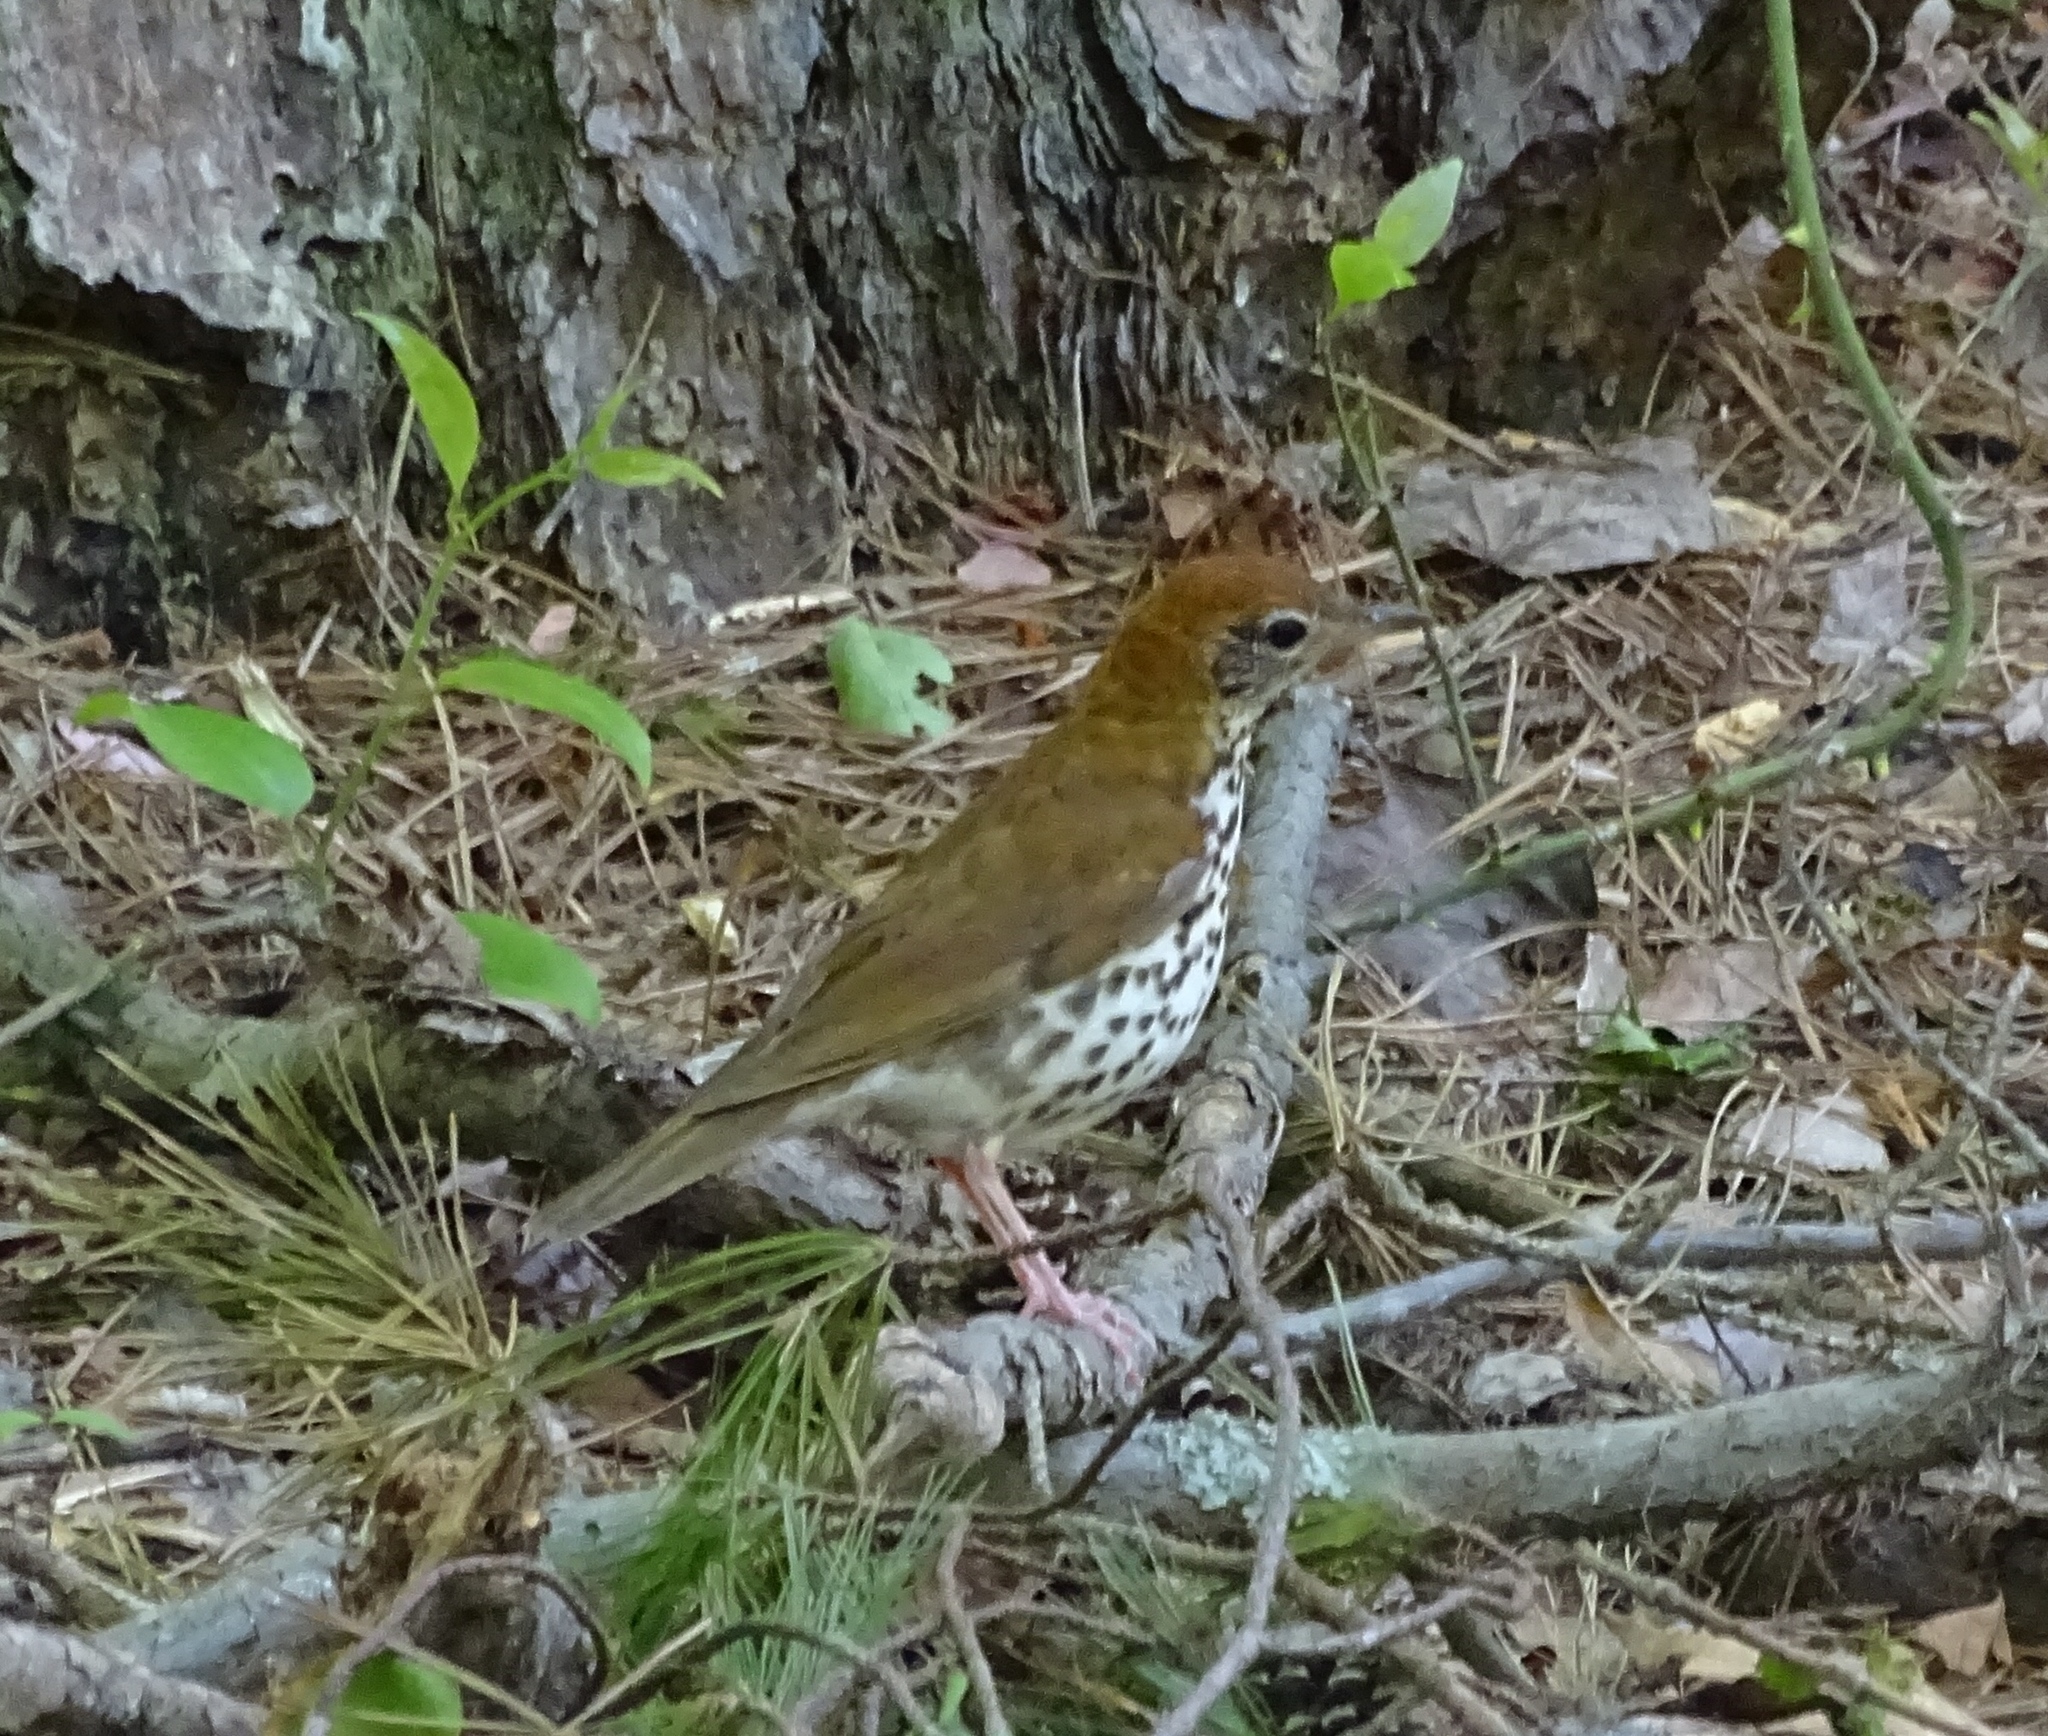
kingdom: Animalia
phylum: Chordata
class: Aves
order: Passeriformes
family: Turdidae
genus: Hylocichla
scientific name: Hylocichla mustelina
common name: Wood thrush
